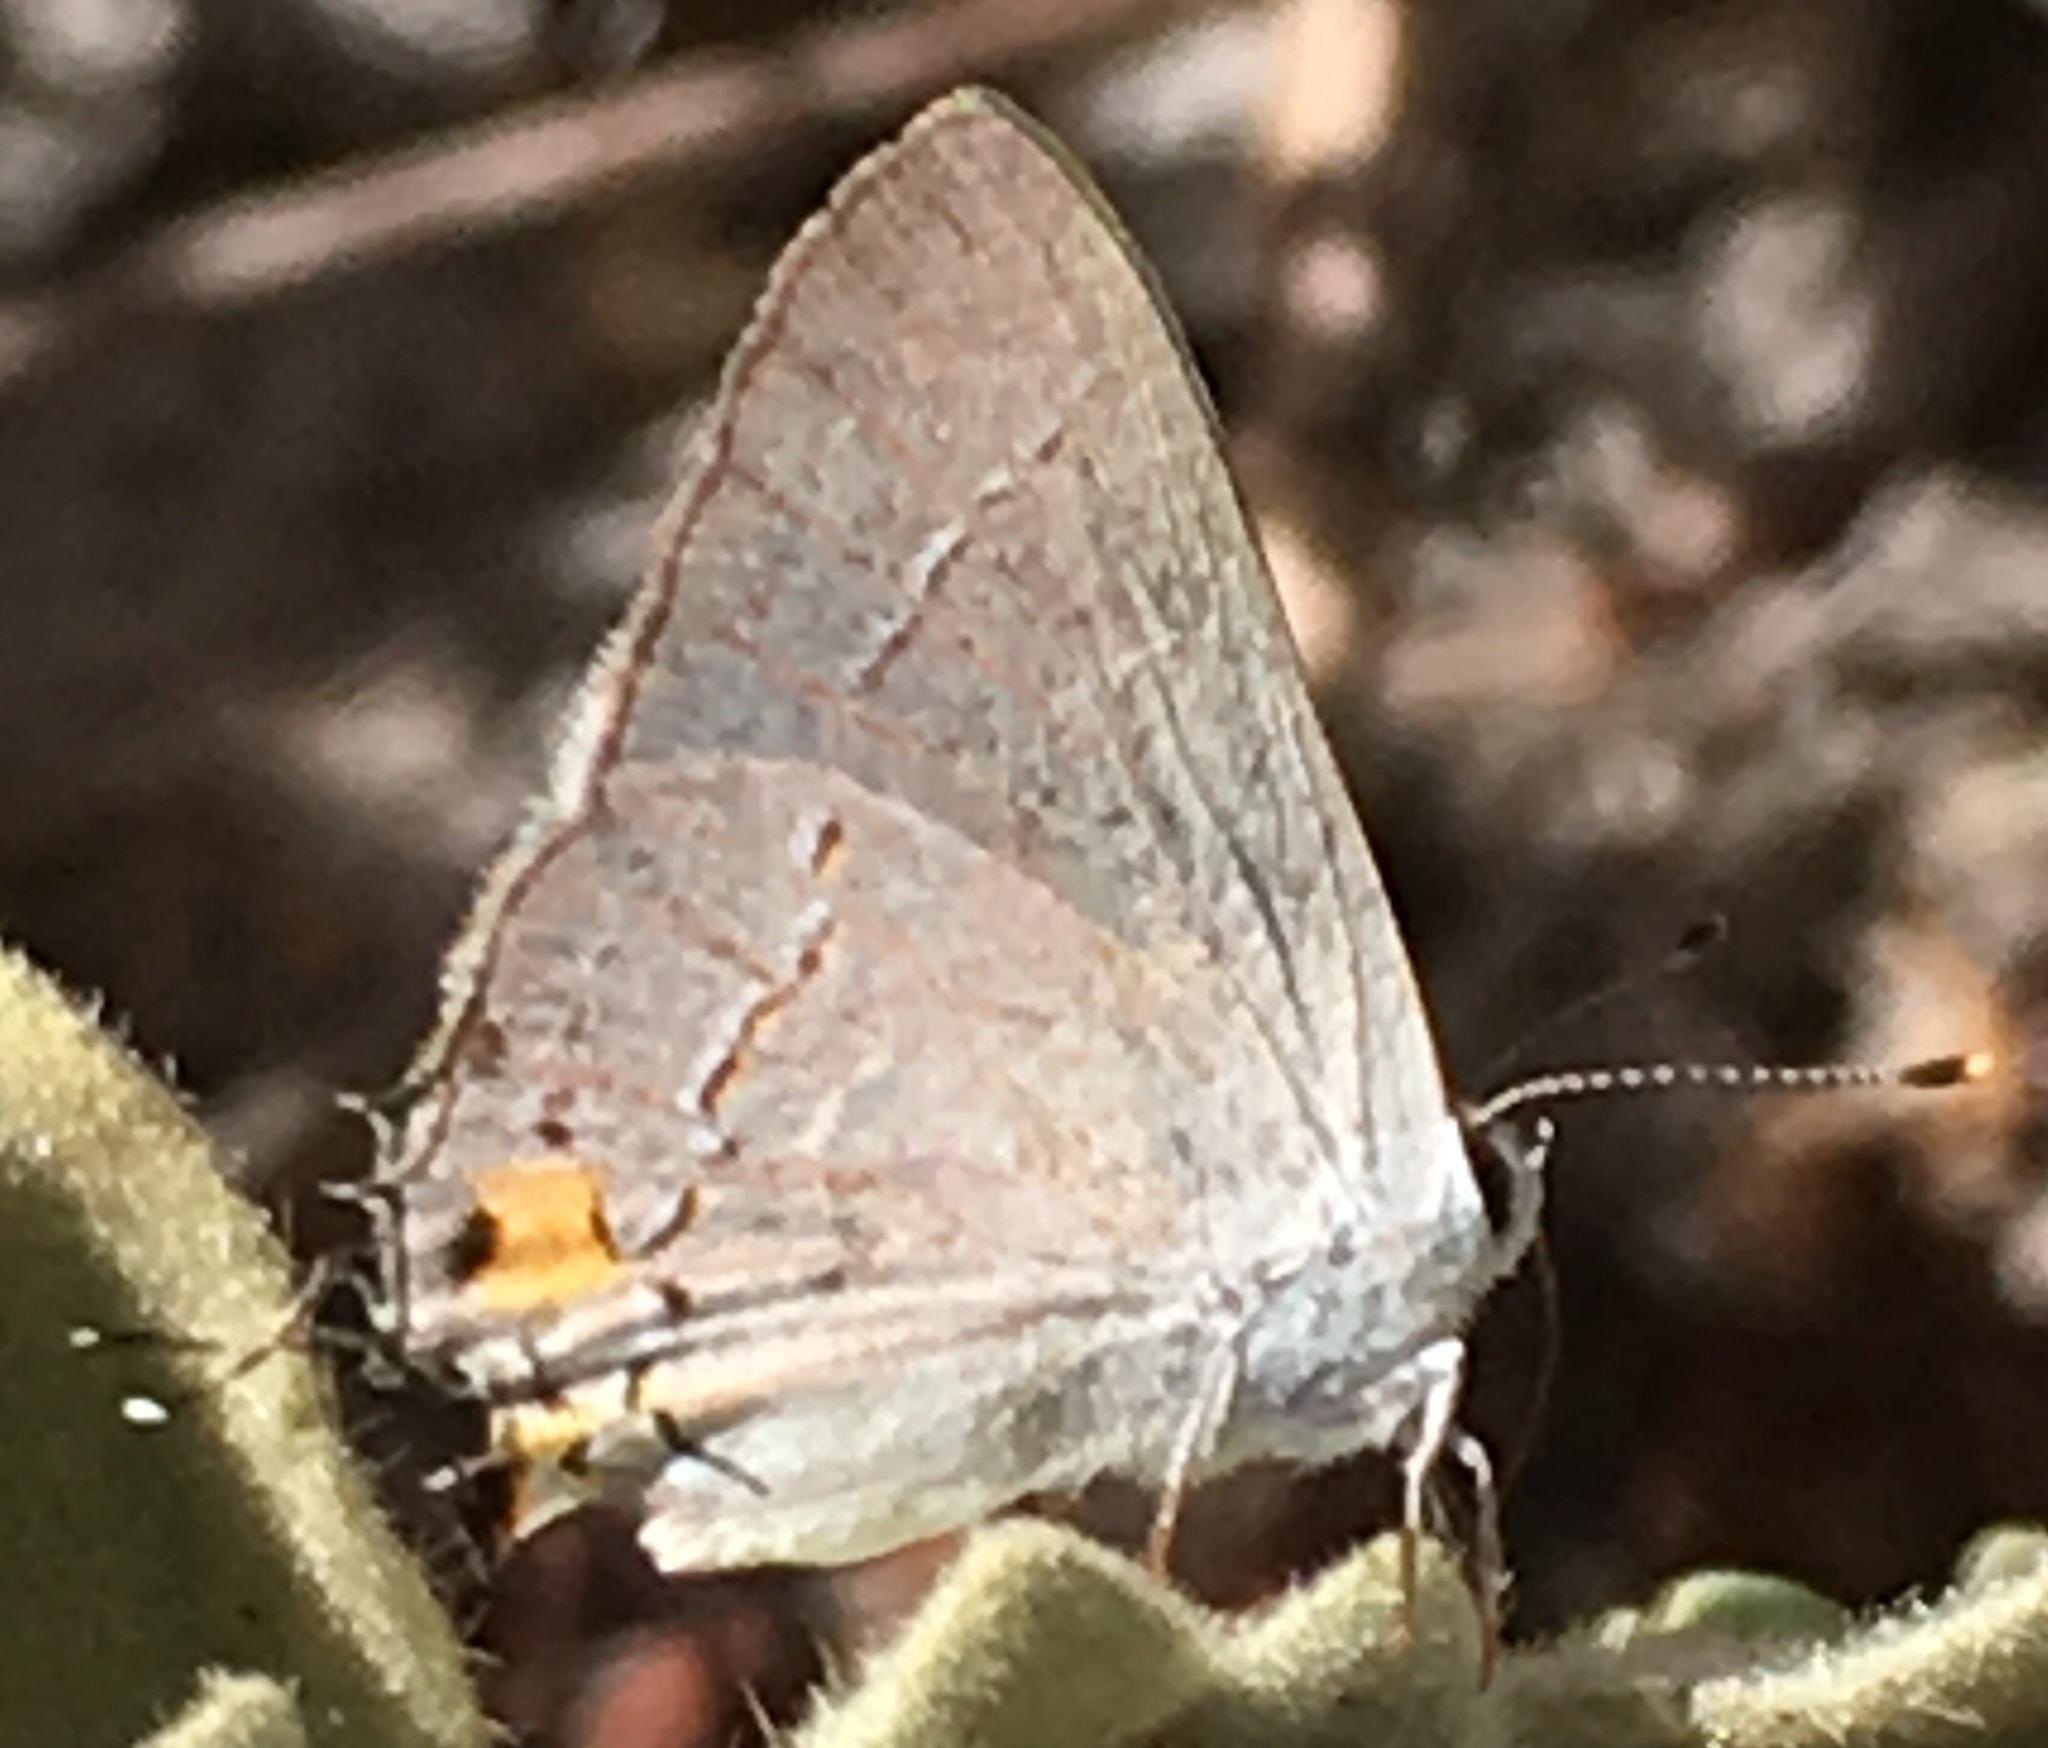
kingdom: Animalia
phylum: Arthropoda
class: Insecta
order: Lepidoptera
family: Lycaenidae
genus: Strymon
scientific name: Strymon melinus
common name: Gray hairstreak
